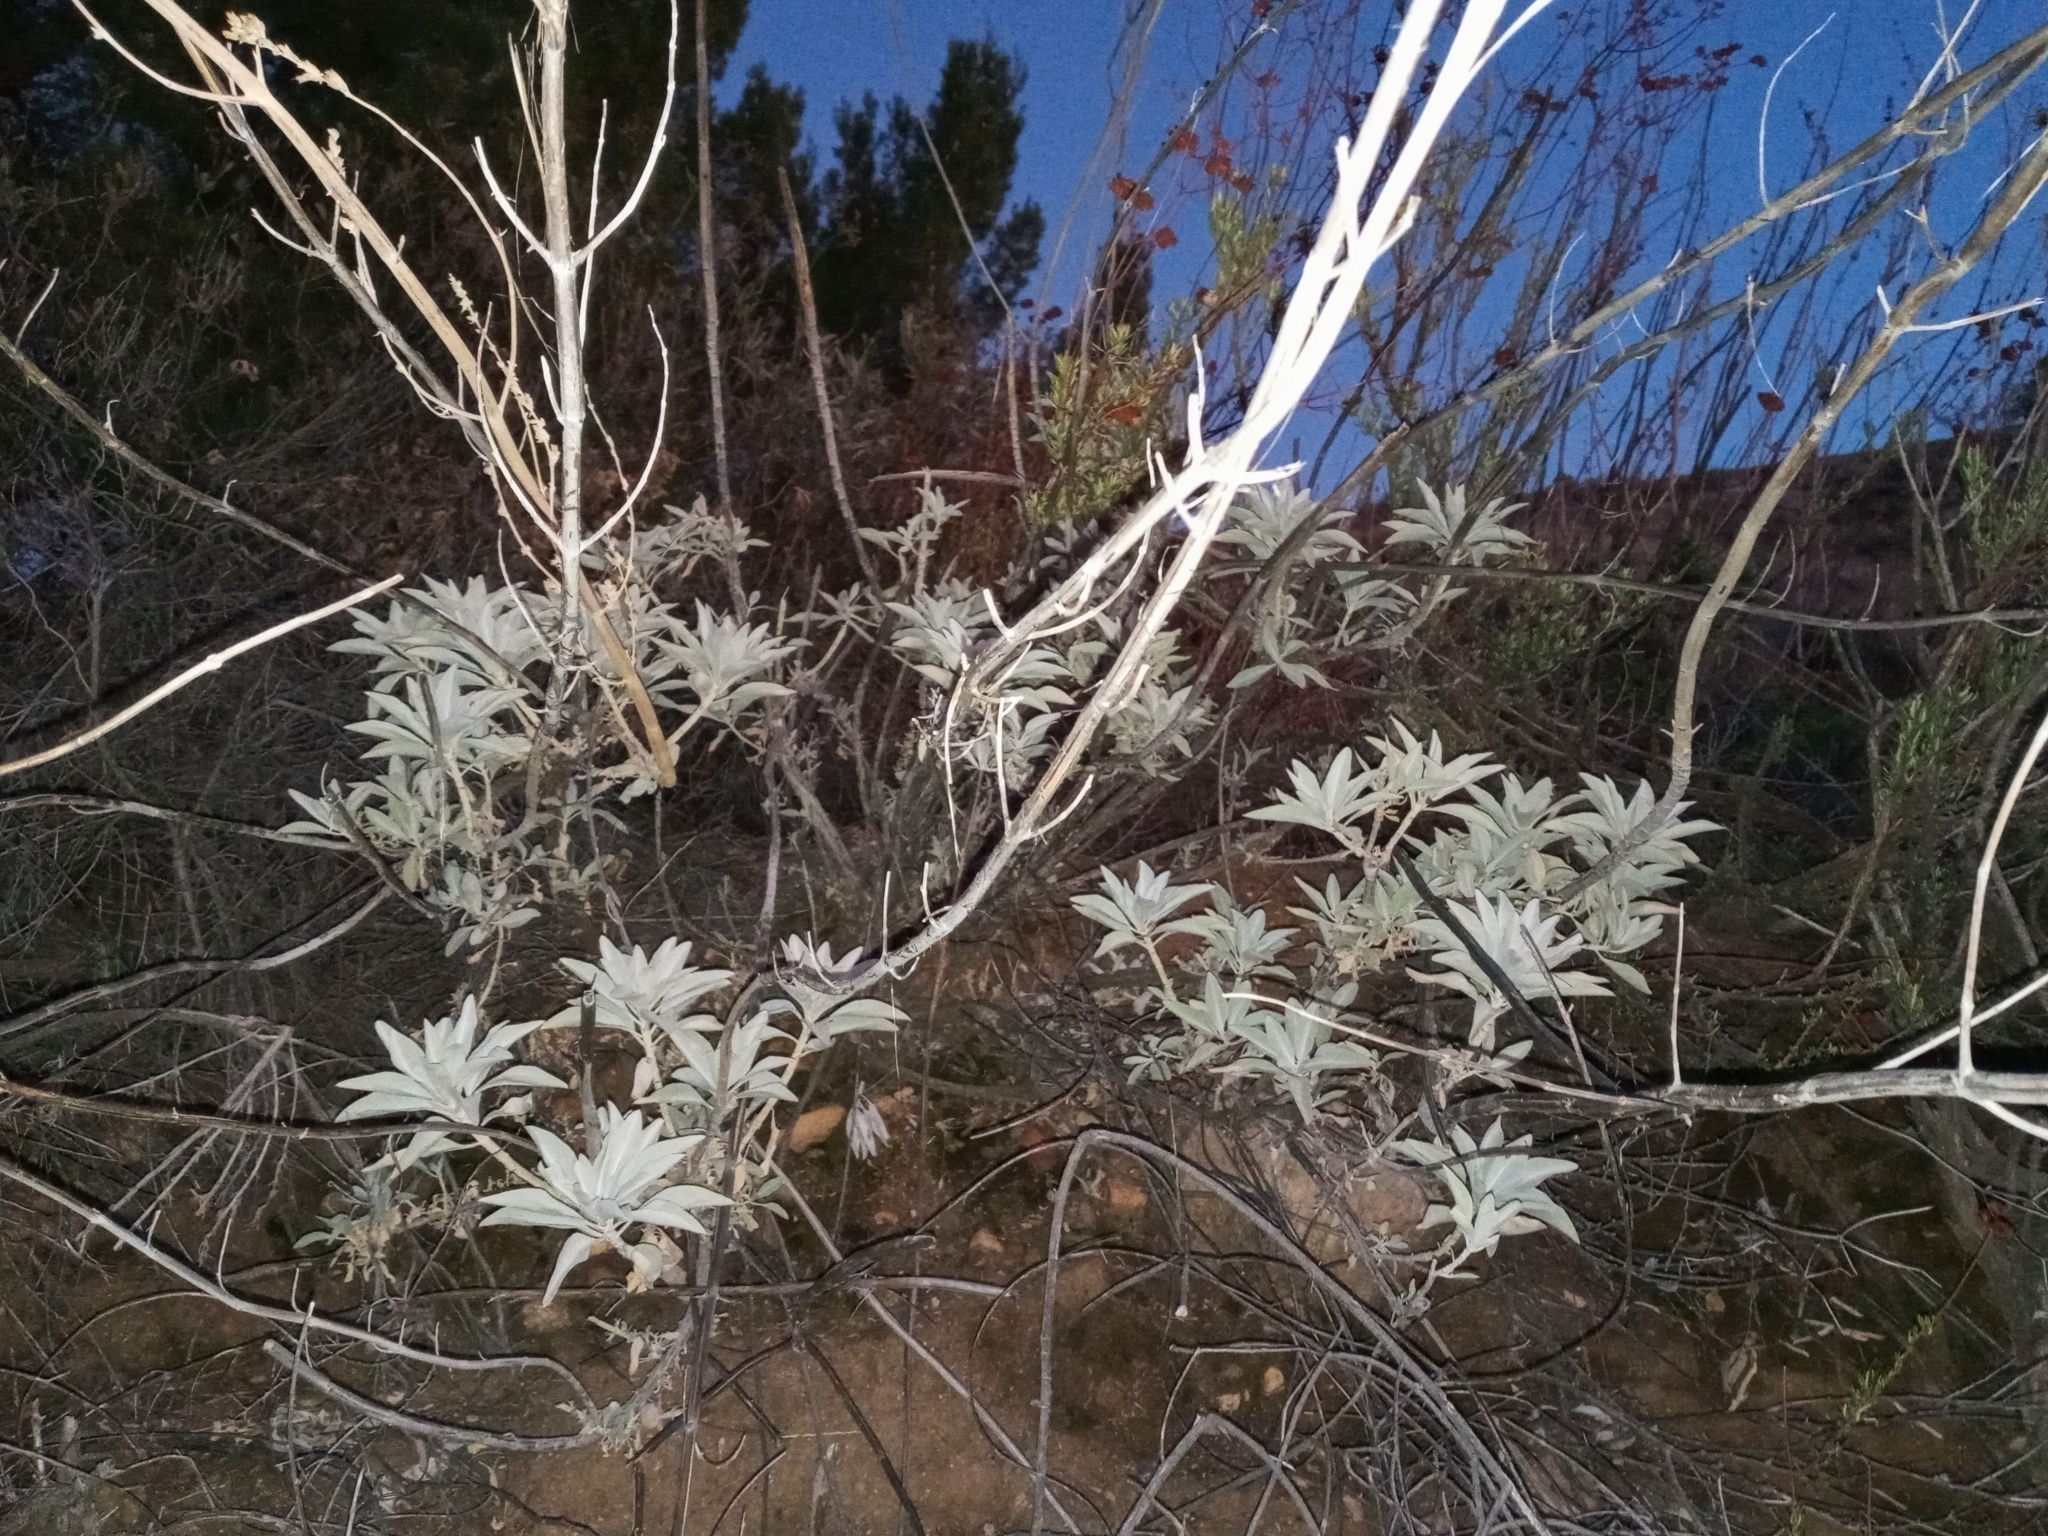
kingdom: Plantae
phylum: Tracheophyta
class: Magnoliopsida
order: Lamiales
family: Lamiaceae
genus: Salvia
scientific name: Salvia apiana
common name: White sage
